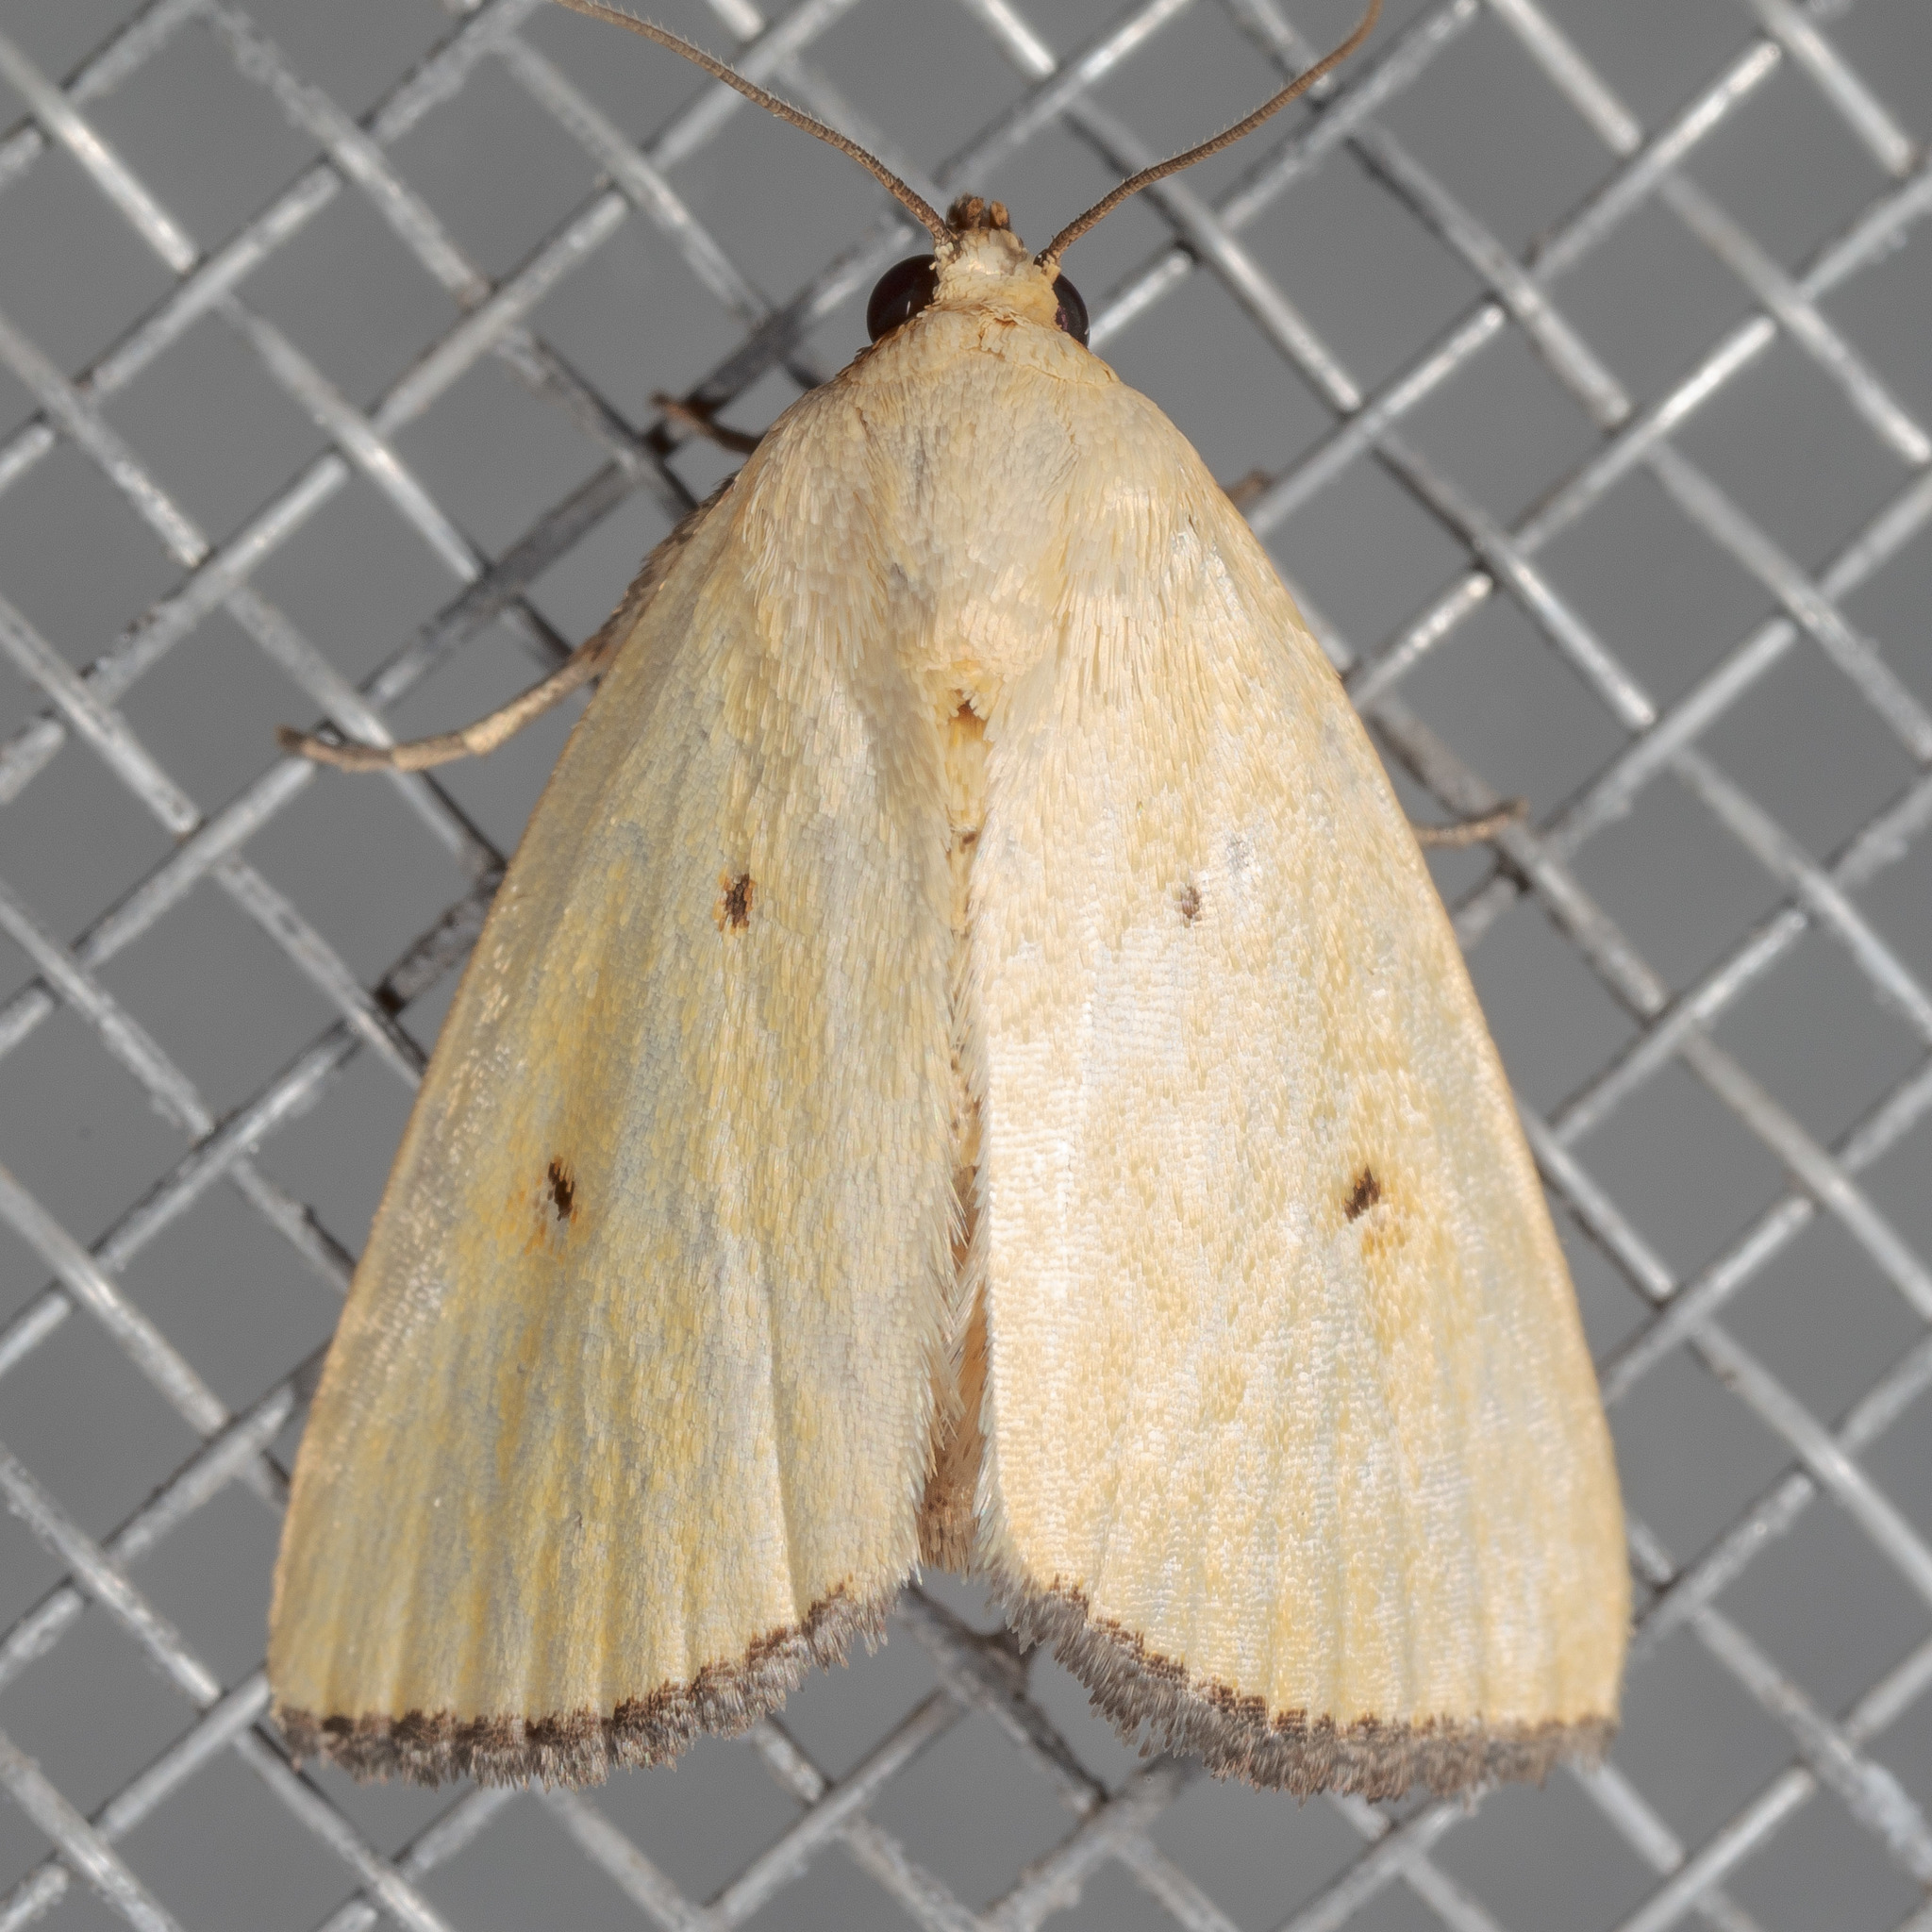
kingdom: Animalia
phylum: Arthropoda
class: Insecta
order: Lepidoptera
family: Noctuidae
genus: Marimatha
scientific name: Marimatha nigrofimbria
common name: Black-bordered lemon moth
